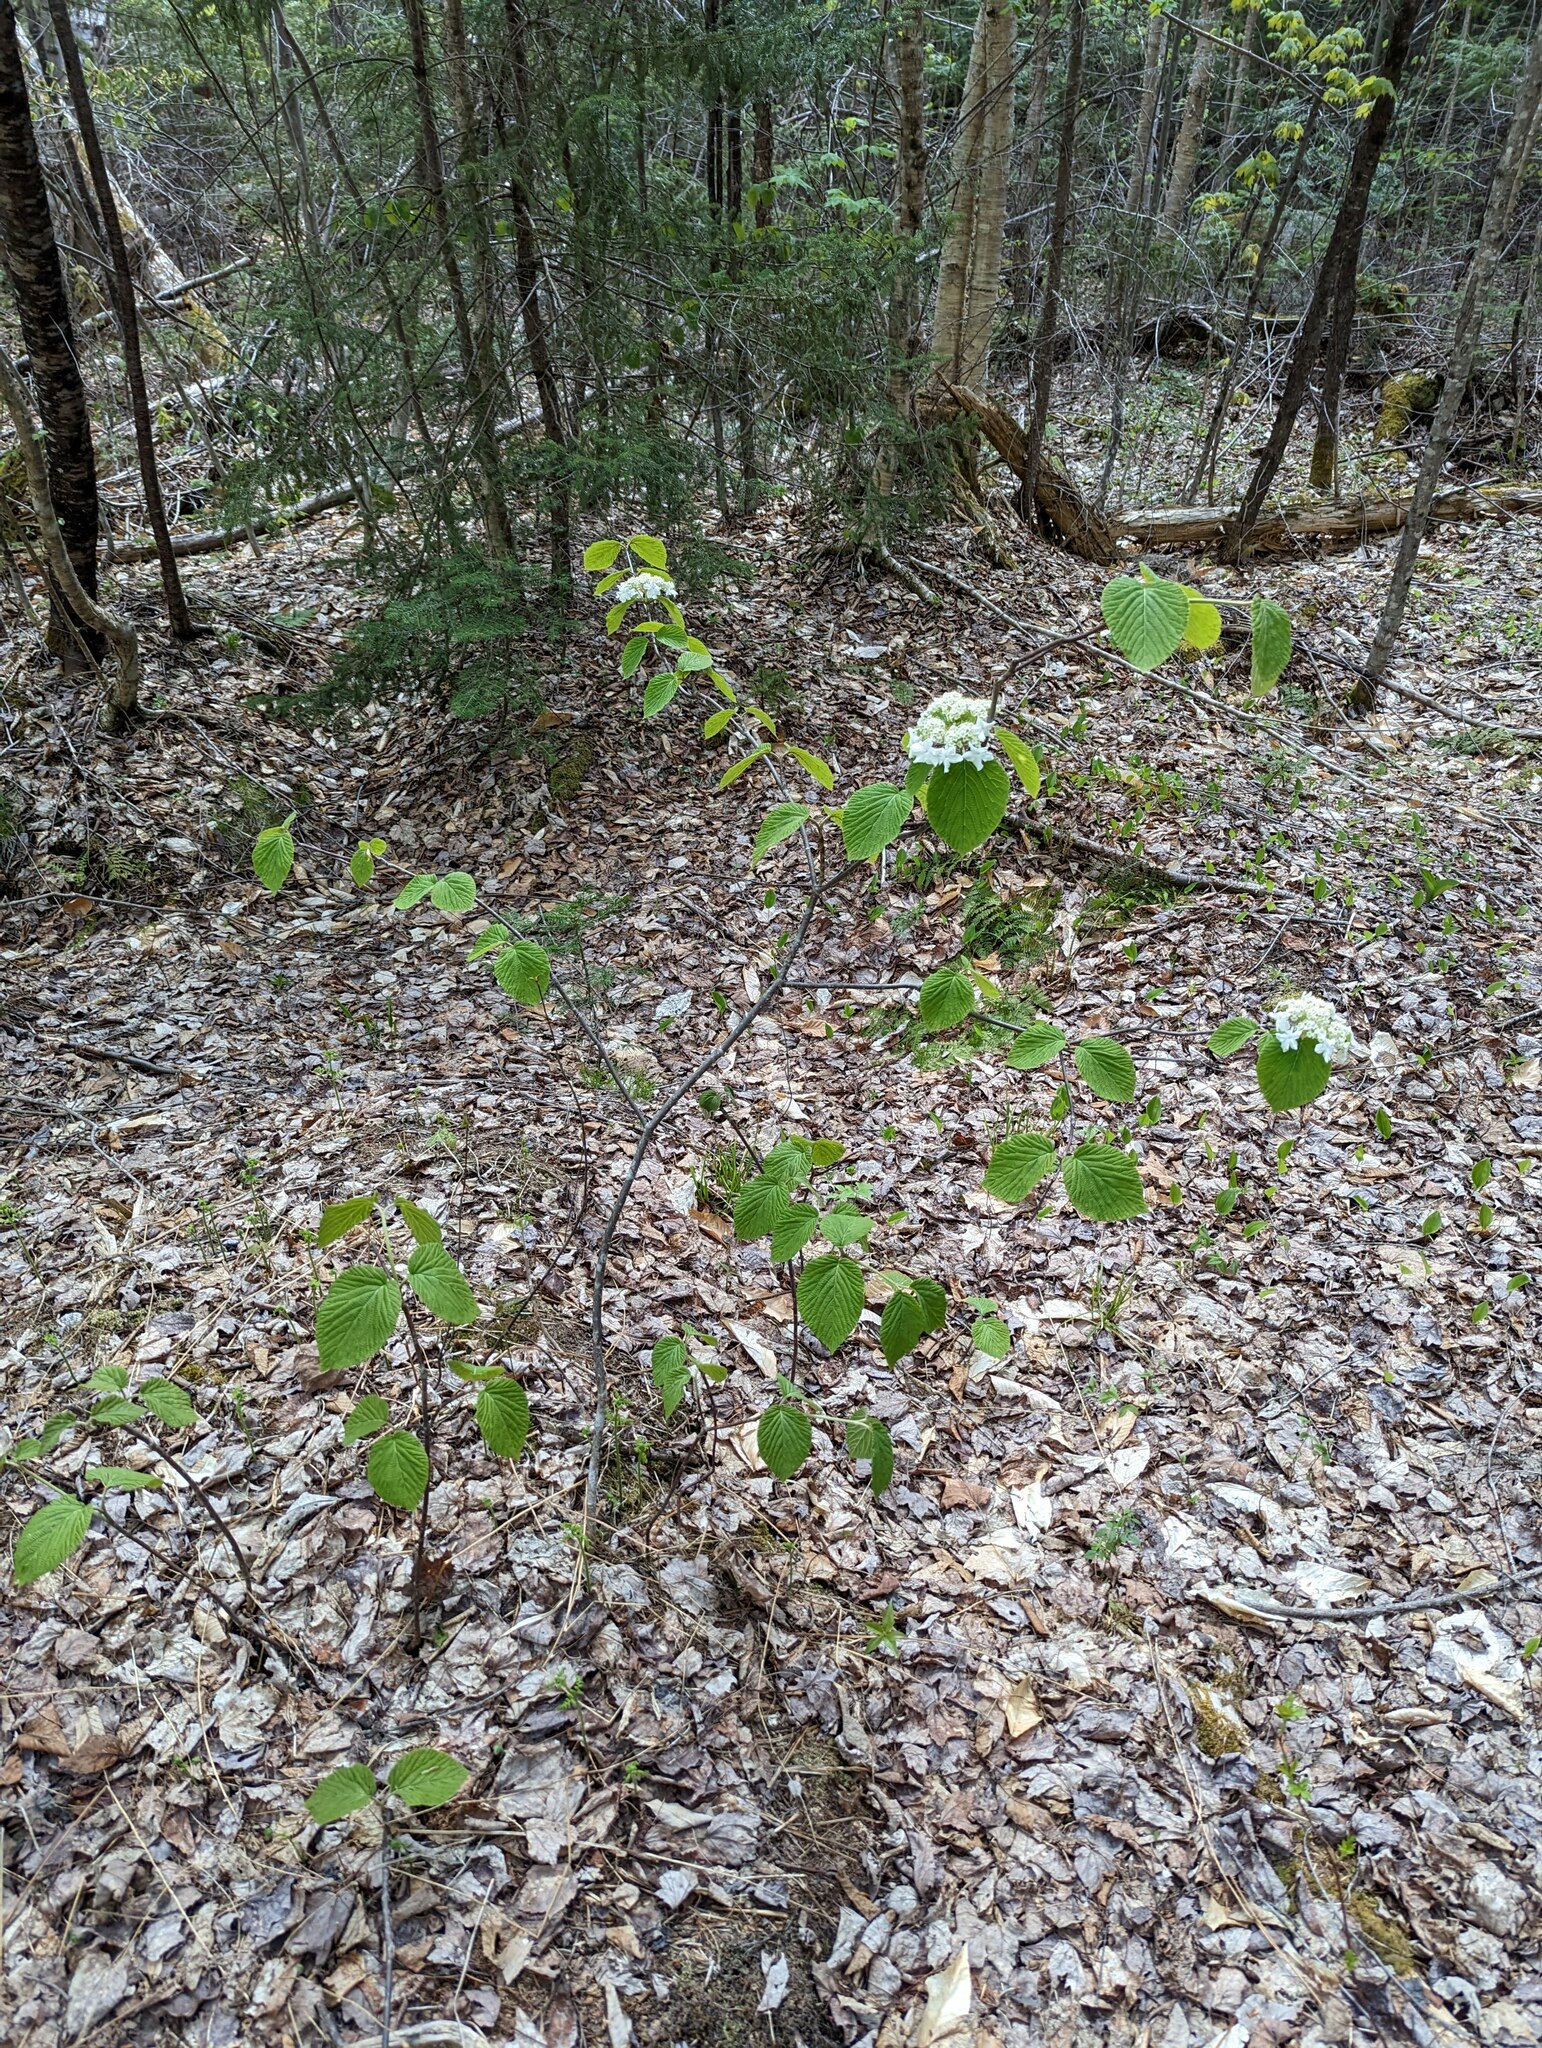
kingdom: Plantae
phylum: Tracheophyta
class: Magnoliopsida
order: Dipsacales
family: Viburnaceae
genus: Viburnum
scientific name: Viburnum lantanoides
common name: Hobblebush
